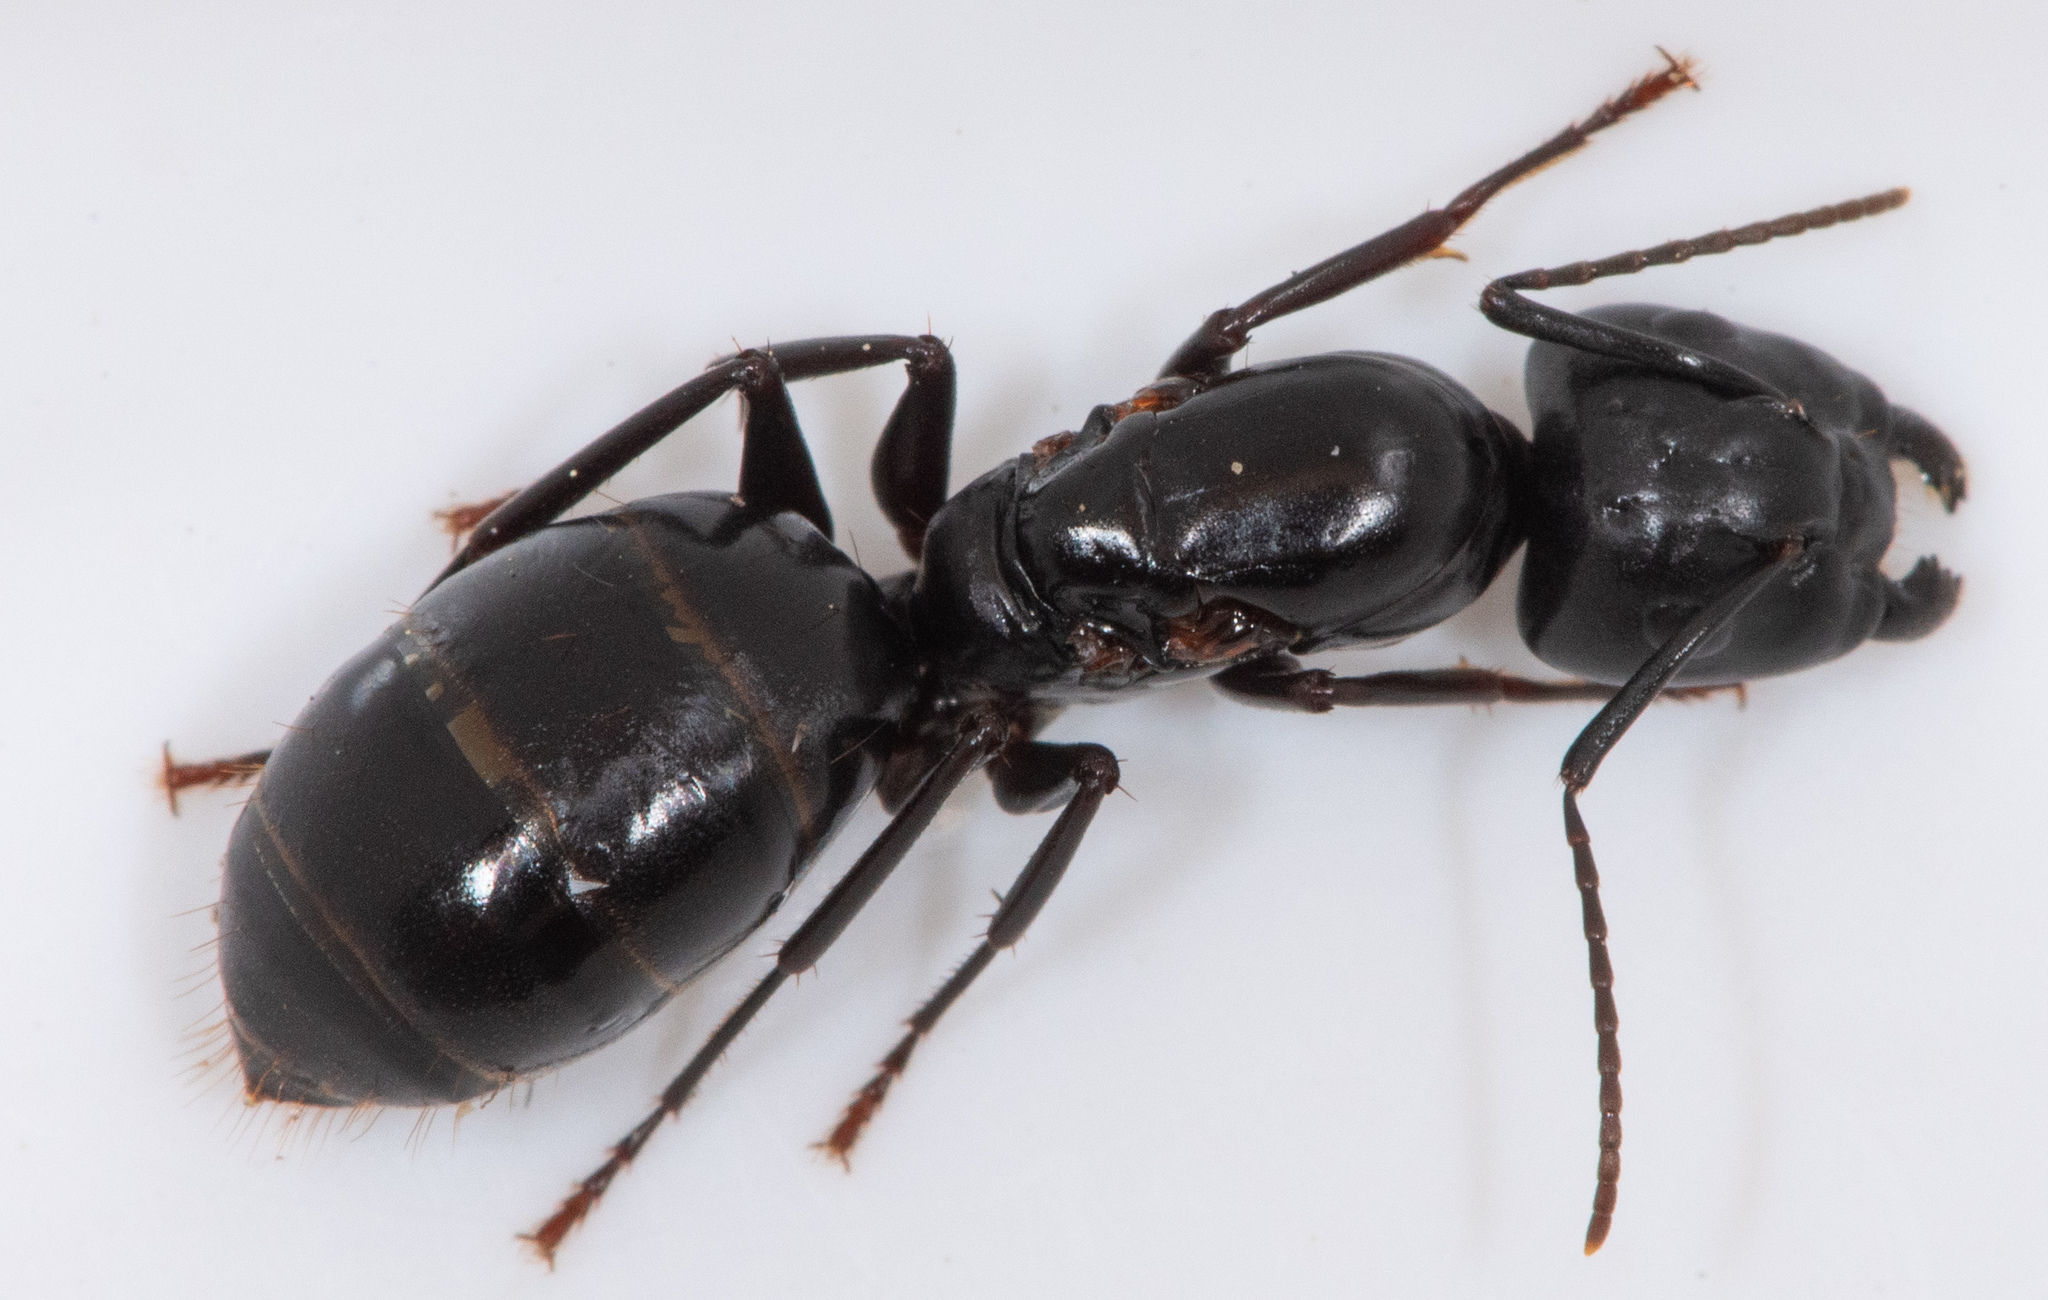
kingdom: Animalia
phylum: Arthropoda
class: Insecta
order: Hymenoptera
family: Formicidae
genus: Camponotus
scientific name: Camponotus laevigatus
